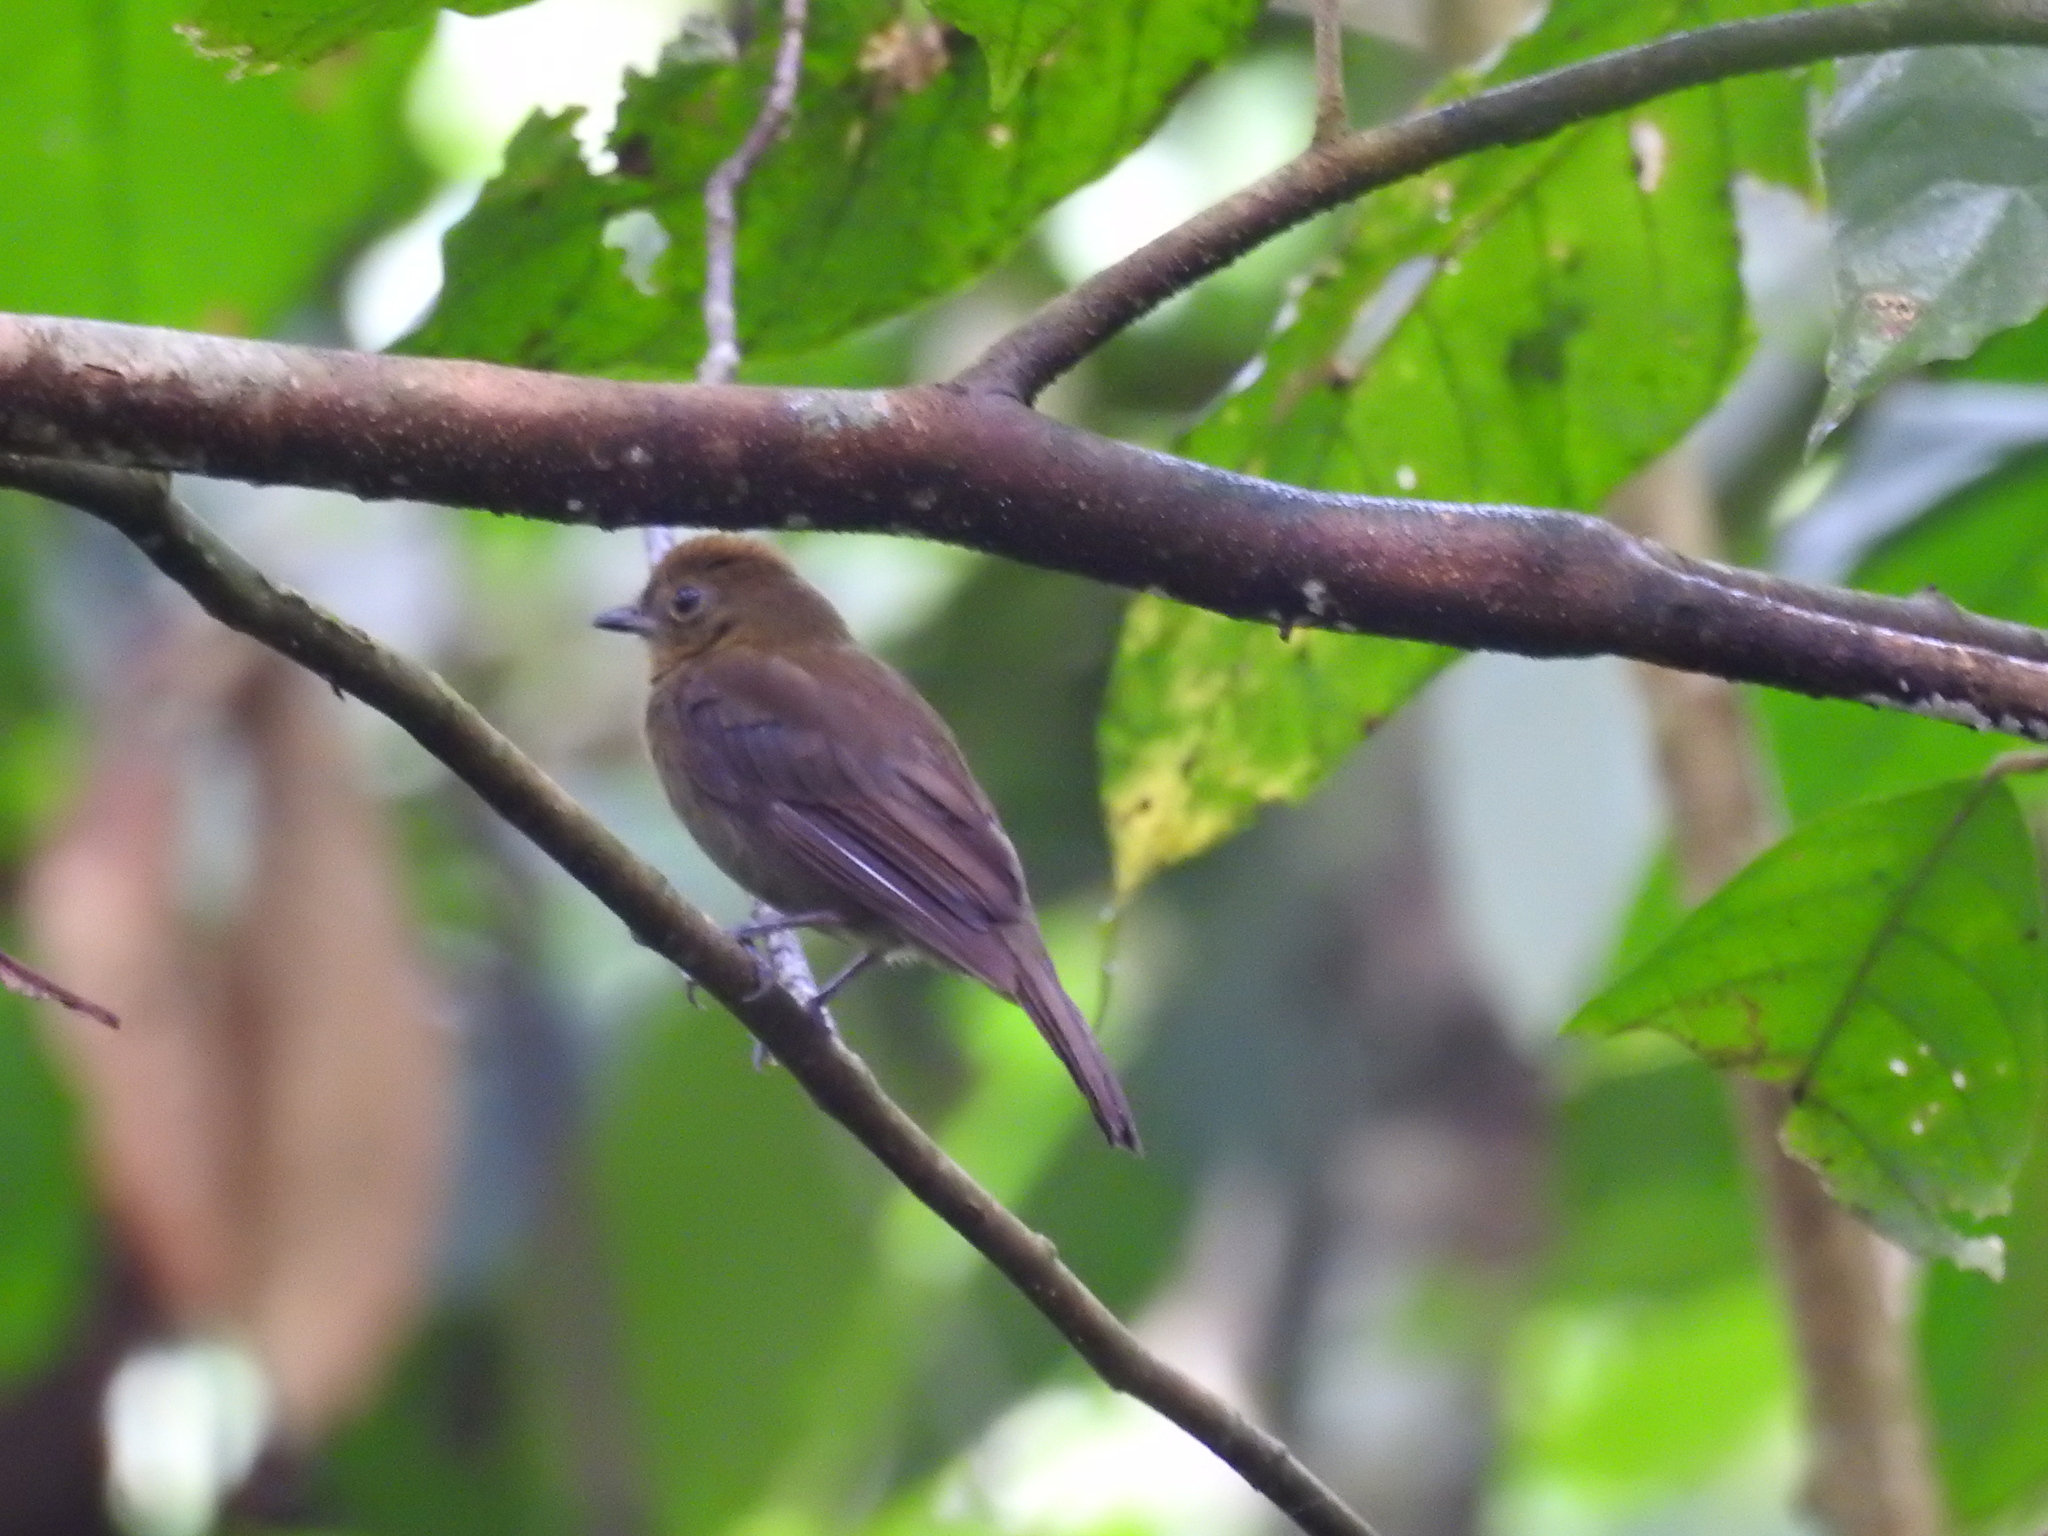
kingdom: Animalia
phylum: Chordata
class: Aves
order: Passeriformes
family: Cotingidae
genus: Schiffornis
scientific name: Schiffornis turdina
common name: Brown-winged schiffornis
